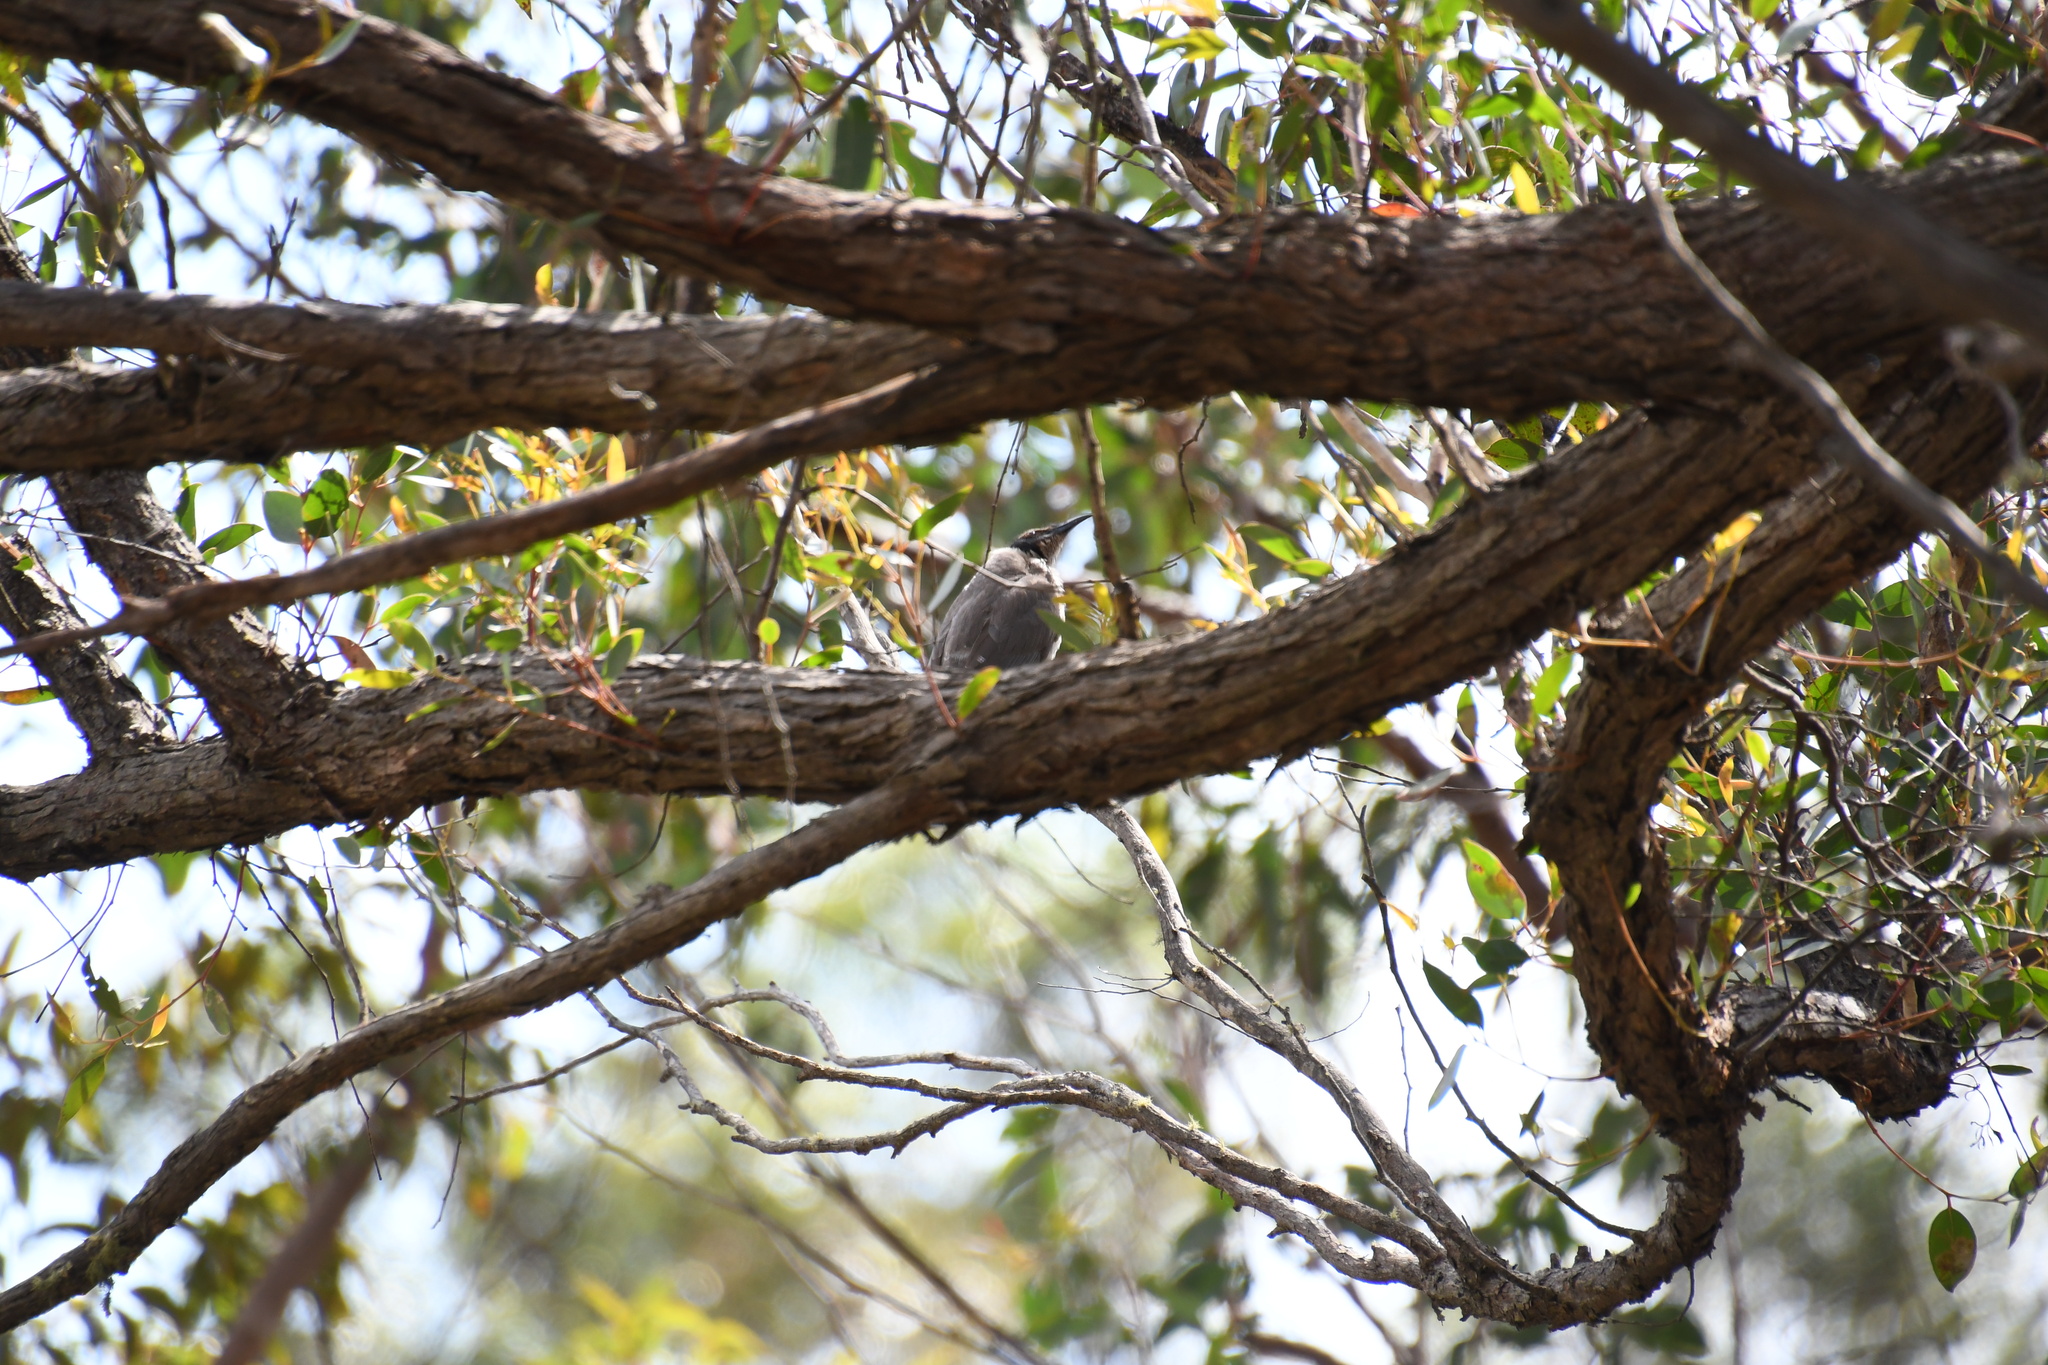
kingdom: Animalia
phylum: Chordata
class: Aves
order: Passeriformes
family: Meliphagidae
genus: Philemon
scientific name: Philemon corniculatus
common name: Noisy friarbird
